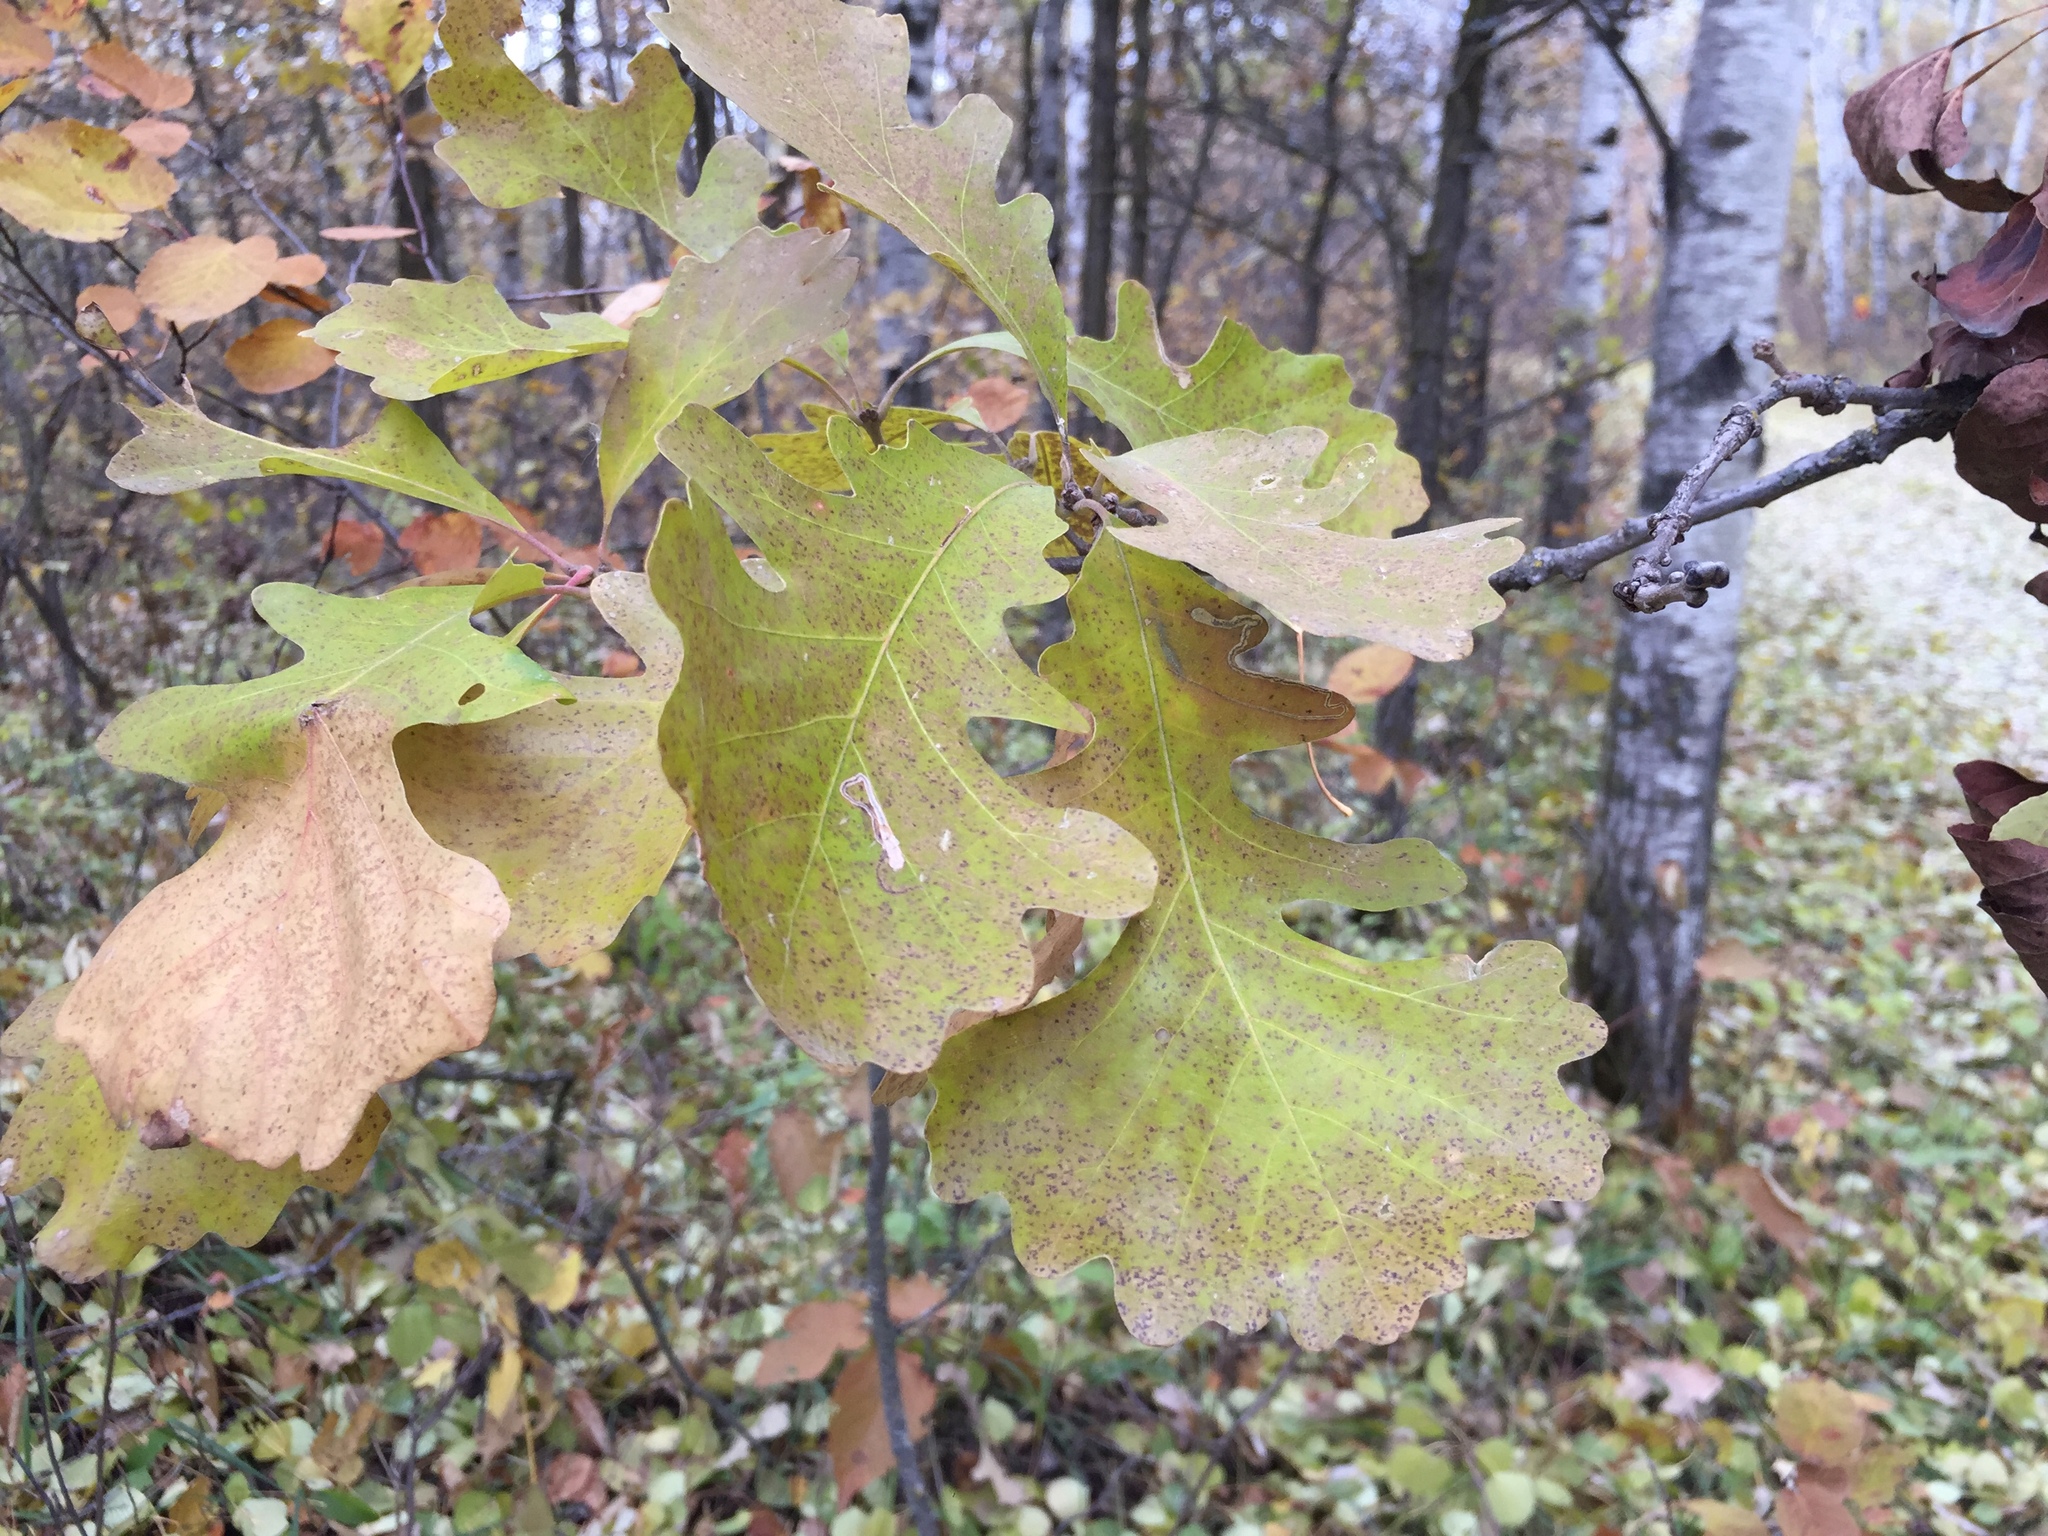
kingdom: Plantae
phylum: Tracheophyta
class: Magnoliopsida
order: Fagales
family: Fagaceae
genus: Quercus
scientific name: Quercus macrocarpa
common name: Bur oak
